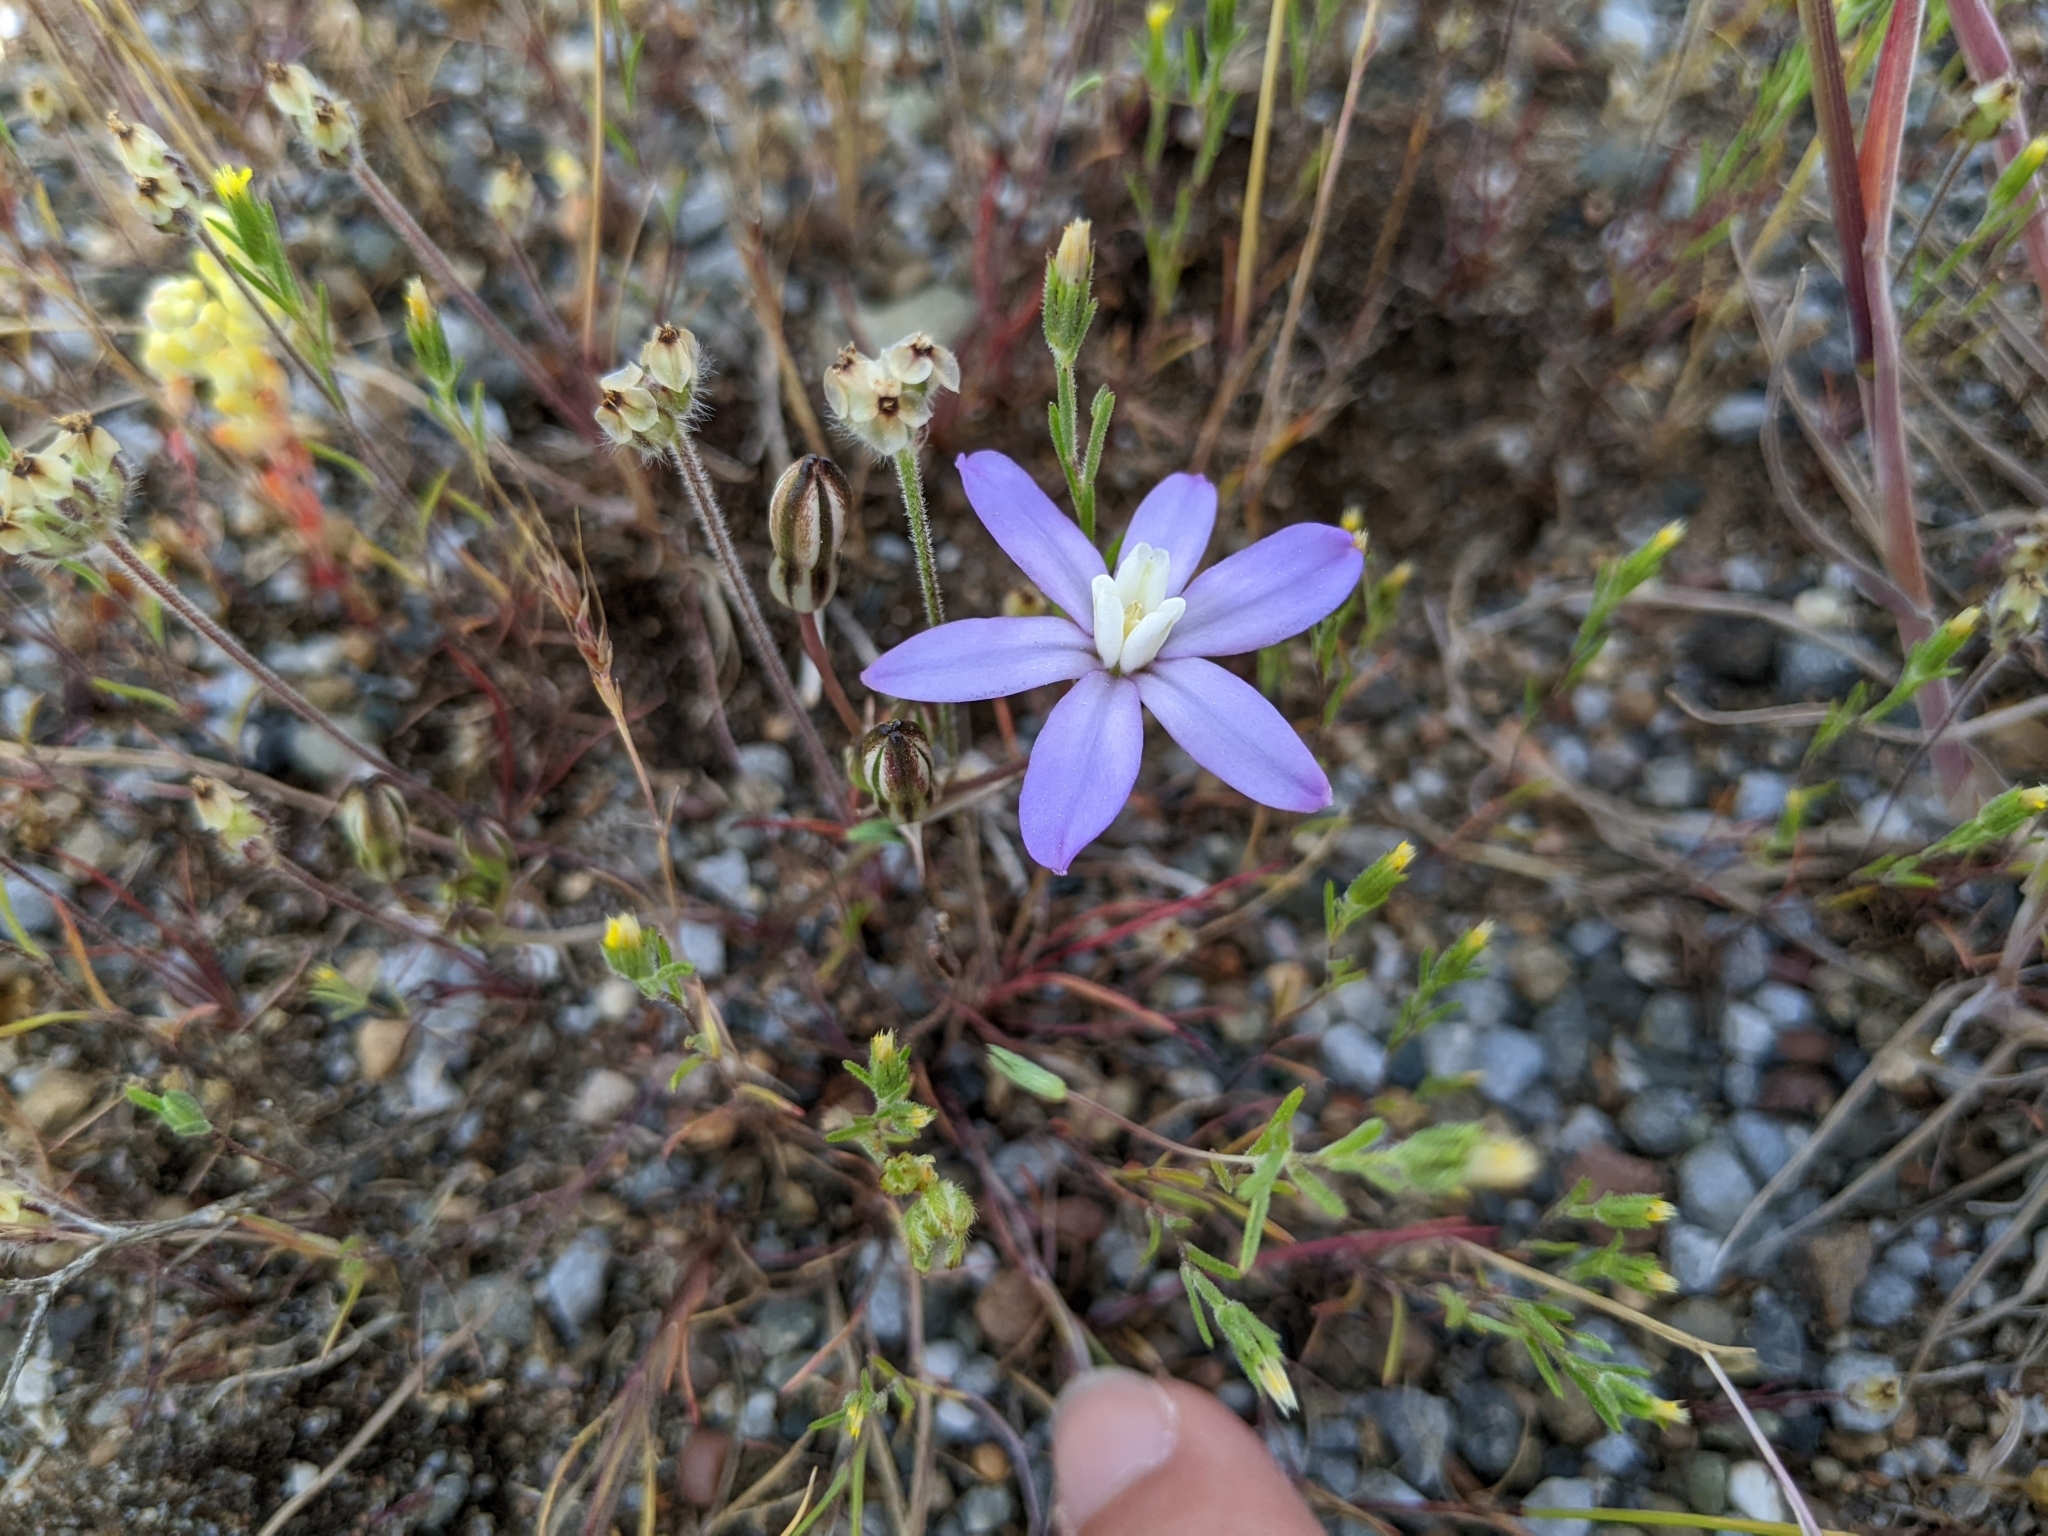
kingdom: Plantae
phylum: Tracheophyta
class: Liliopsida
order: Asparagales
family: Asparagaceae
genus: Brodiaea
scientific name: Brodiaea nana
